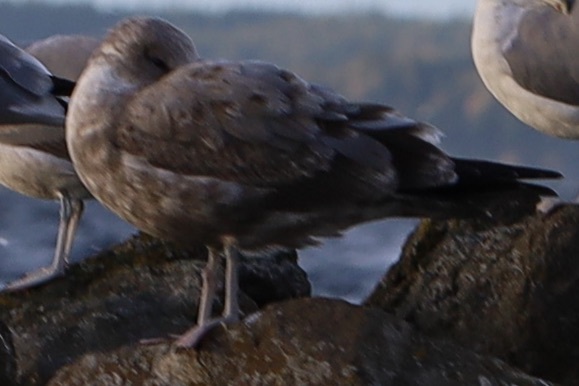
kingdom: Animalia
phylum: Chordata
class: Aves
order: Charadriiformes
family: Laridae
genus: Larus
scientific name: Larus californicus
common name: California gull
